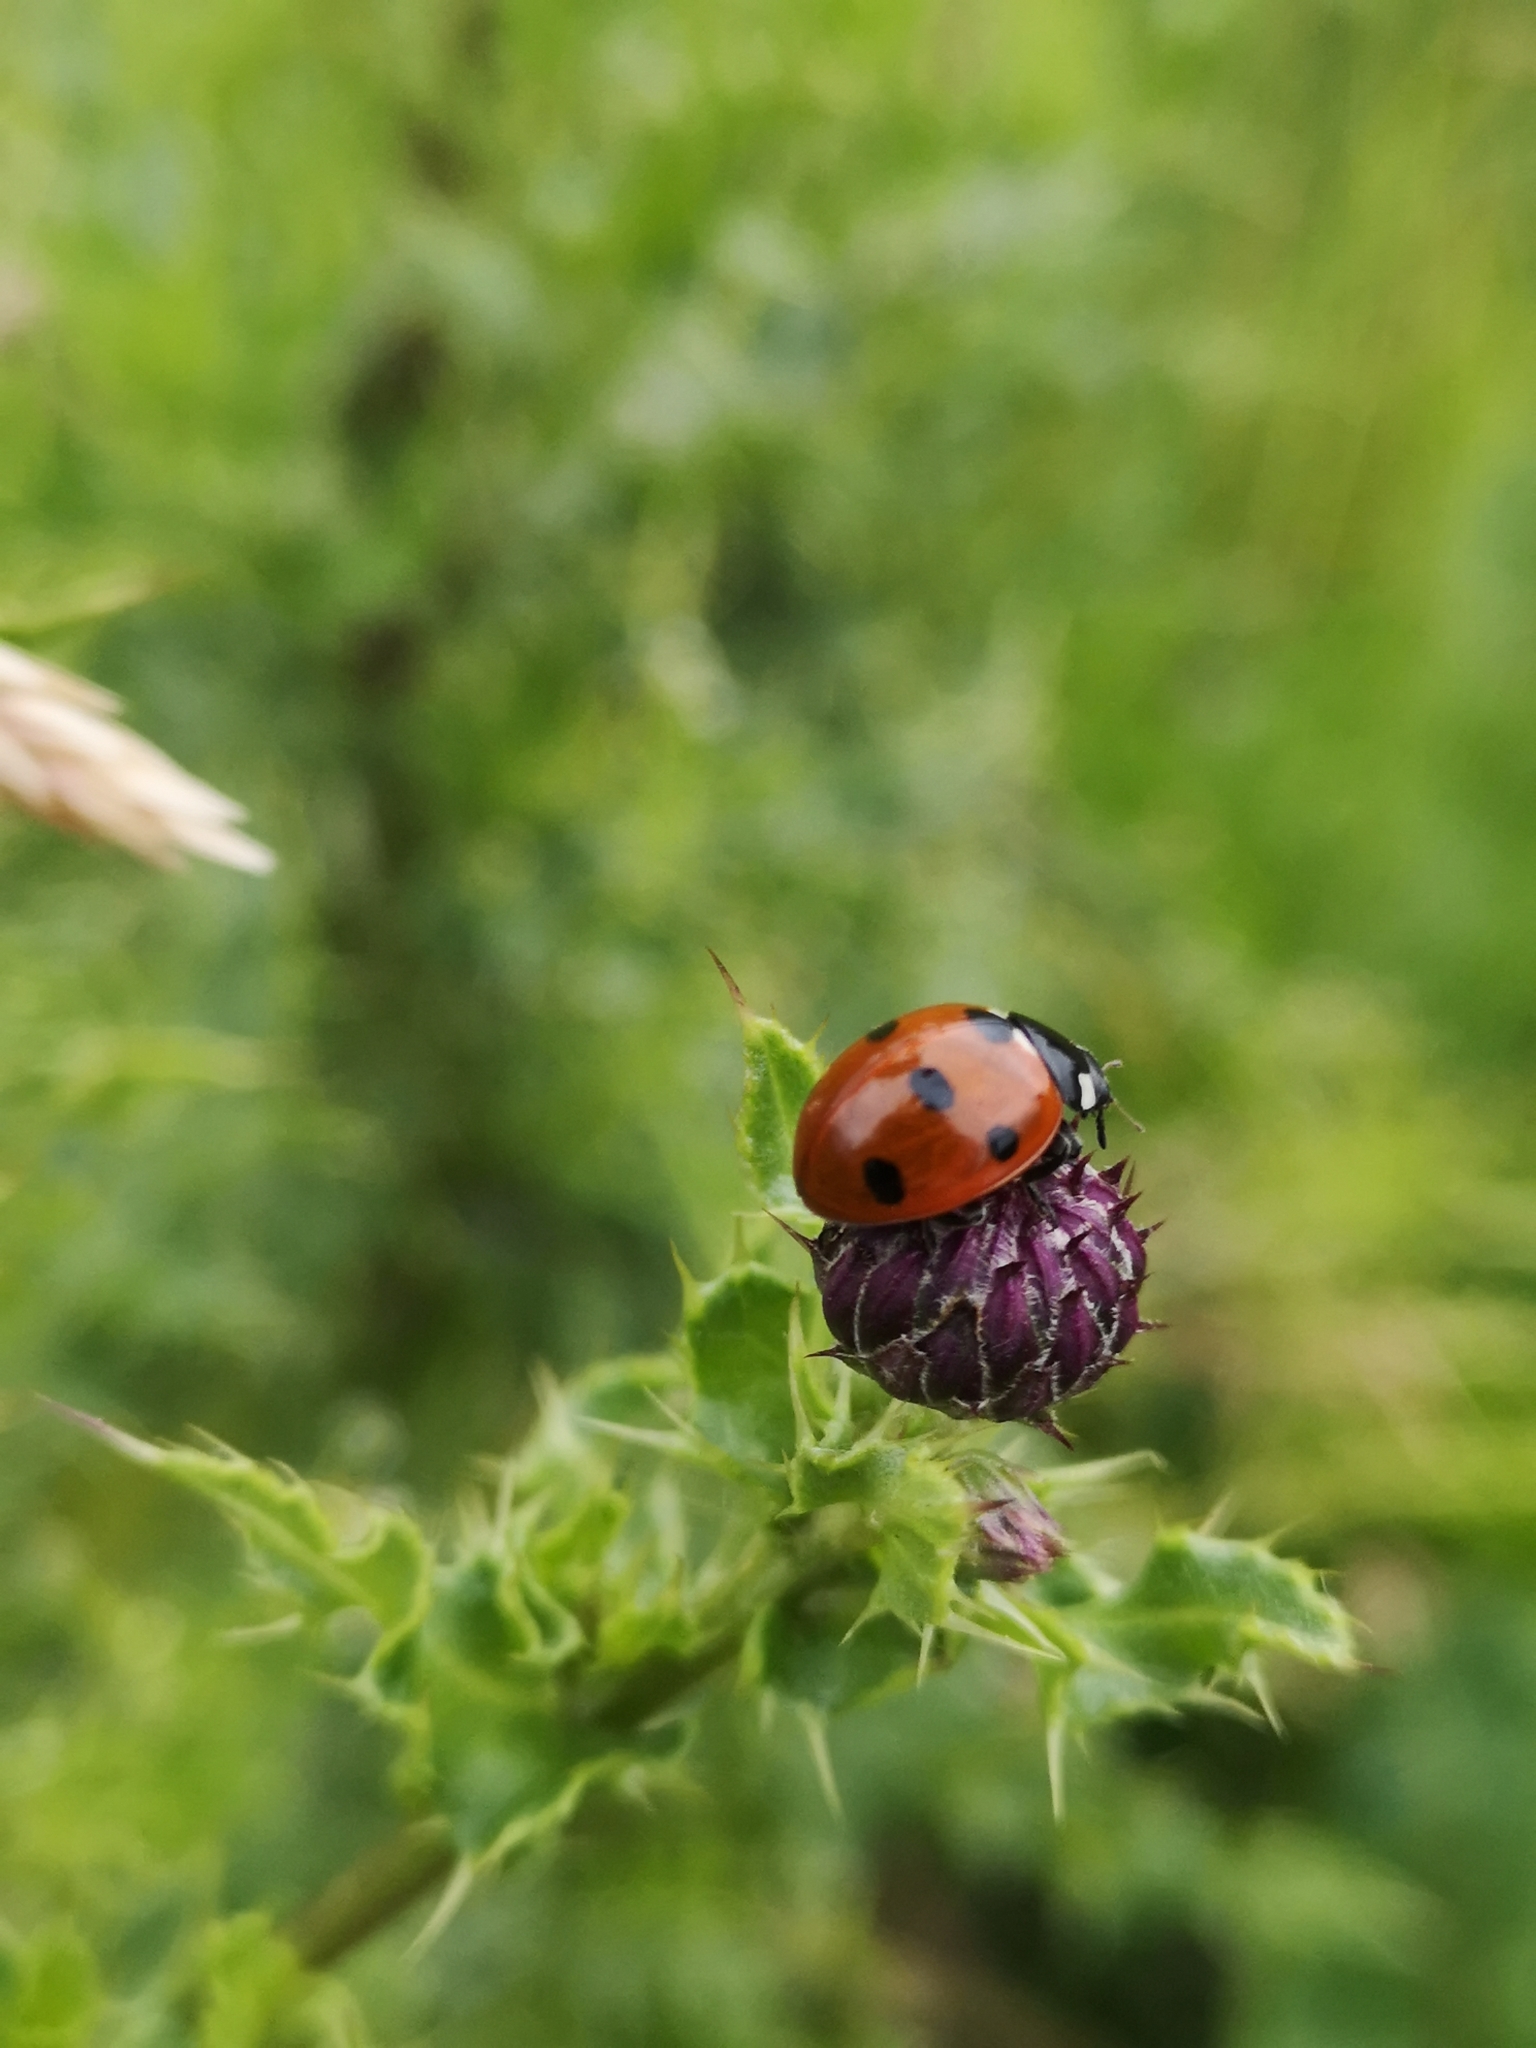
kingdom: Animalia
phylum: Arthropoda
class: Insecta
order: Coleoptera
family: Coccinellidae
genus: Coccinella
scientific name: Coccinella septempunctata
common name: Sevenspotted lady beetle
